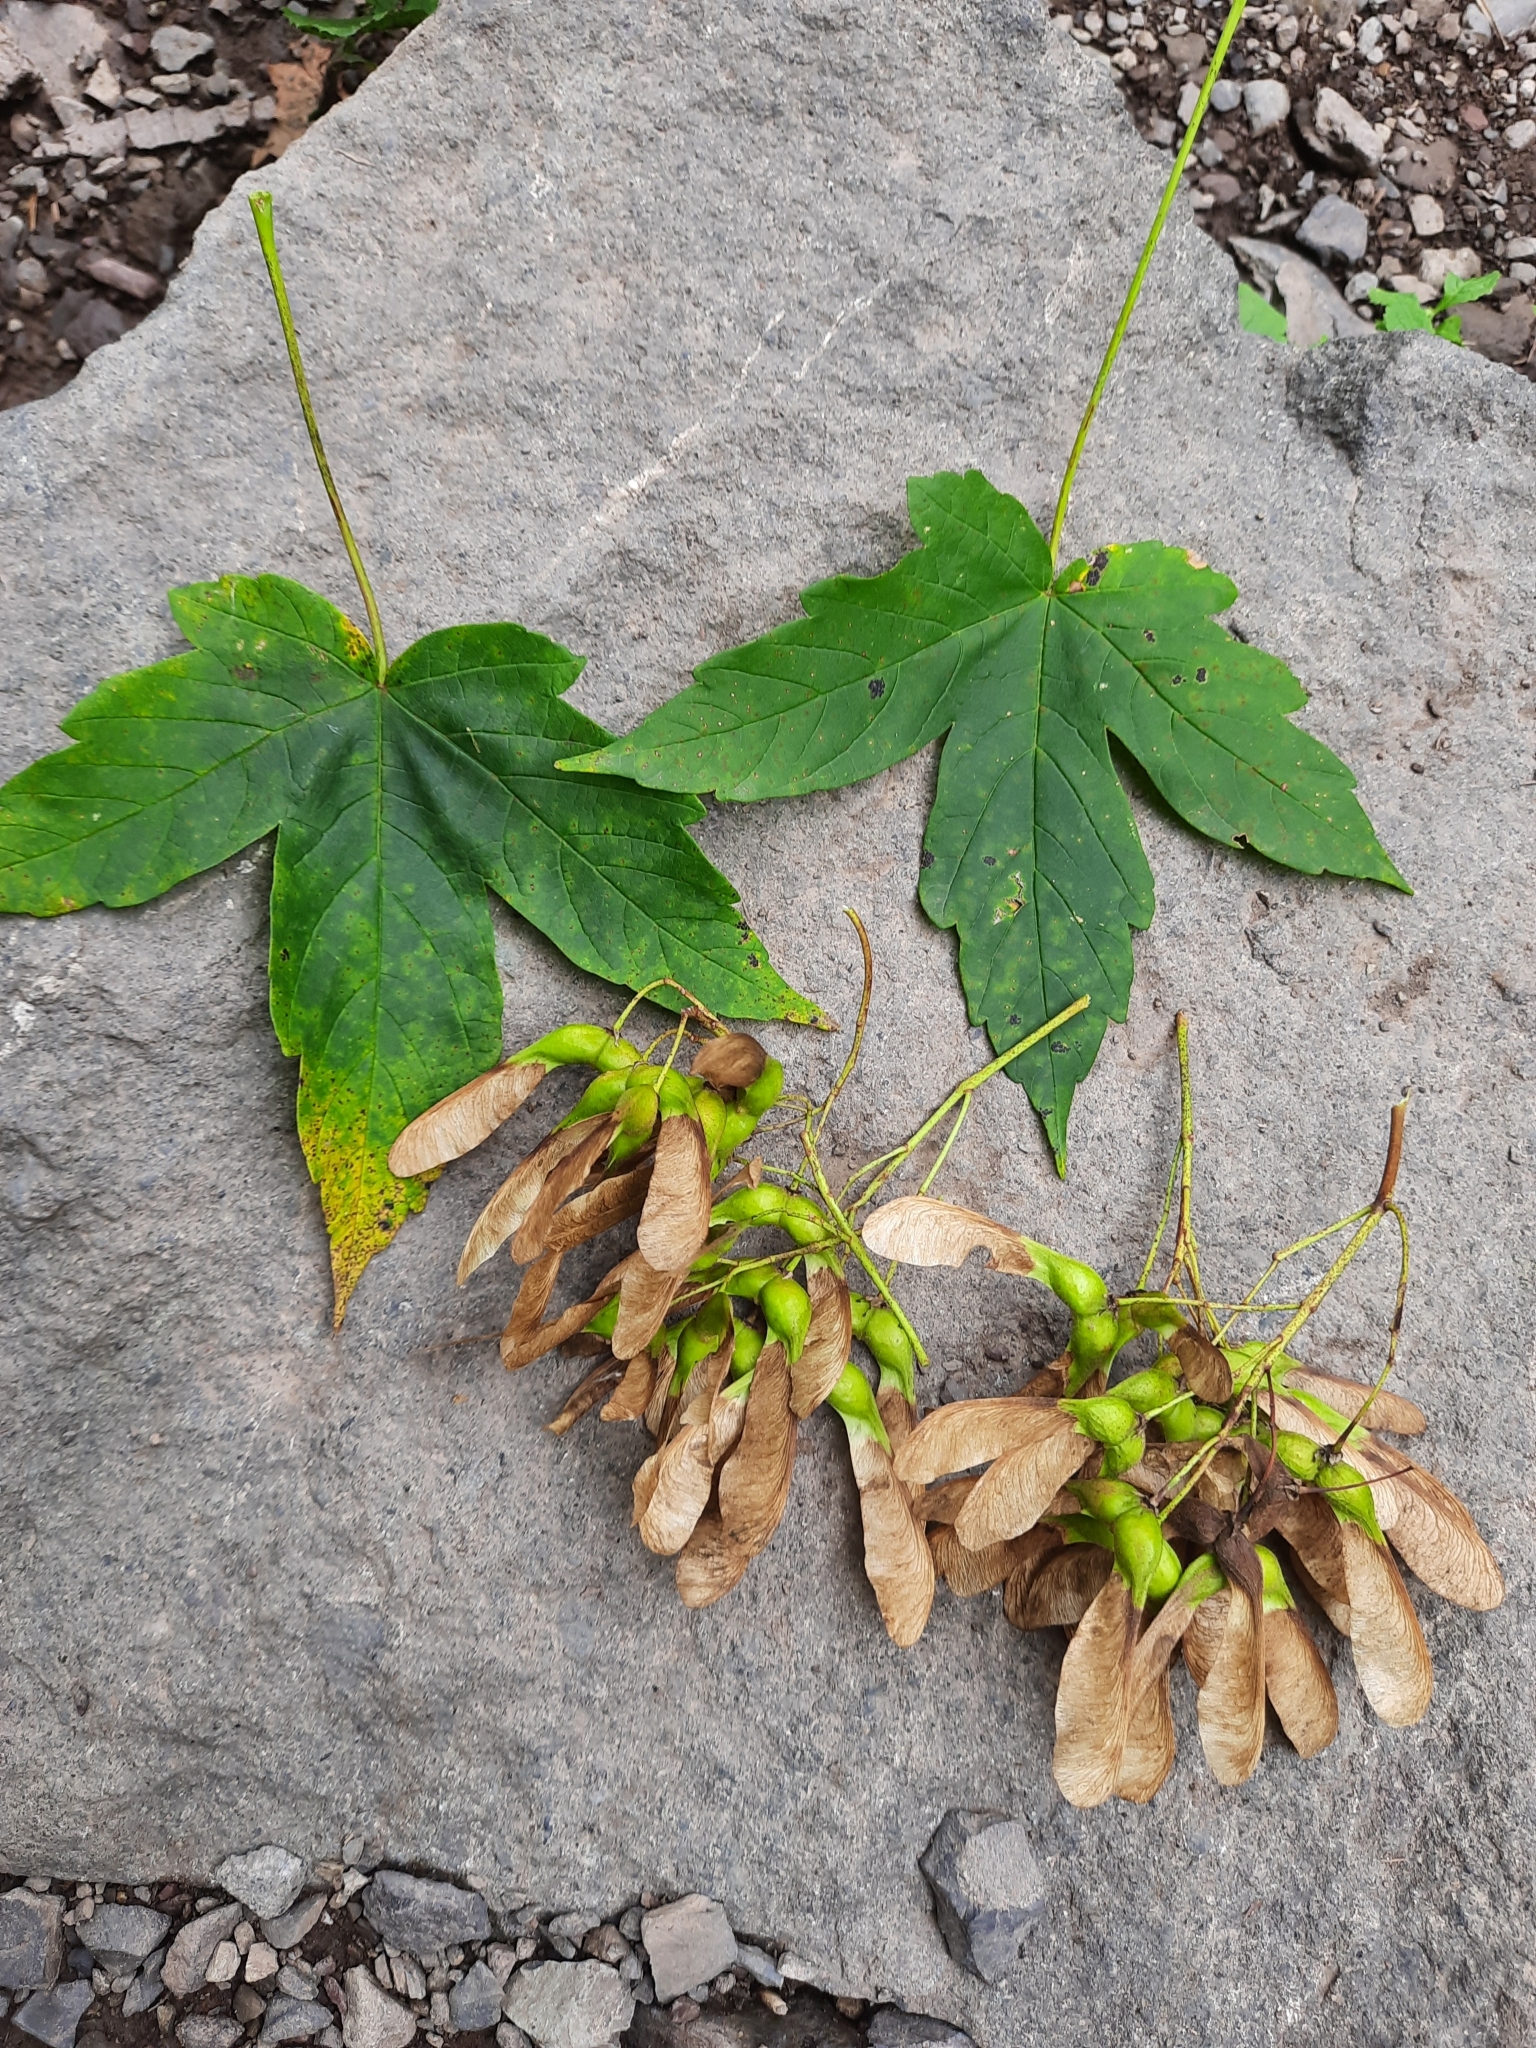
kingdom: Plantae
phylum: Tracheophyta
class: Magnoliopsida
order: Sapindales
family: Sapindaceae
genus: Acer
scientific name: Acer heldreichii
